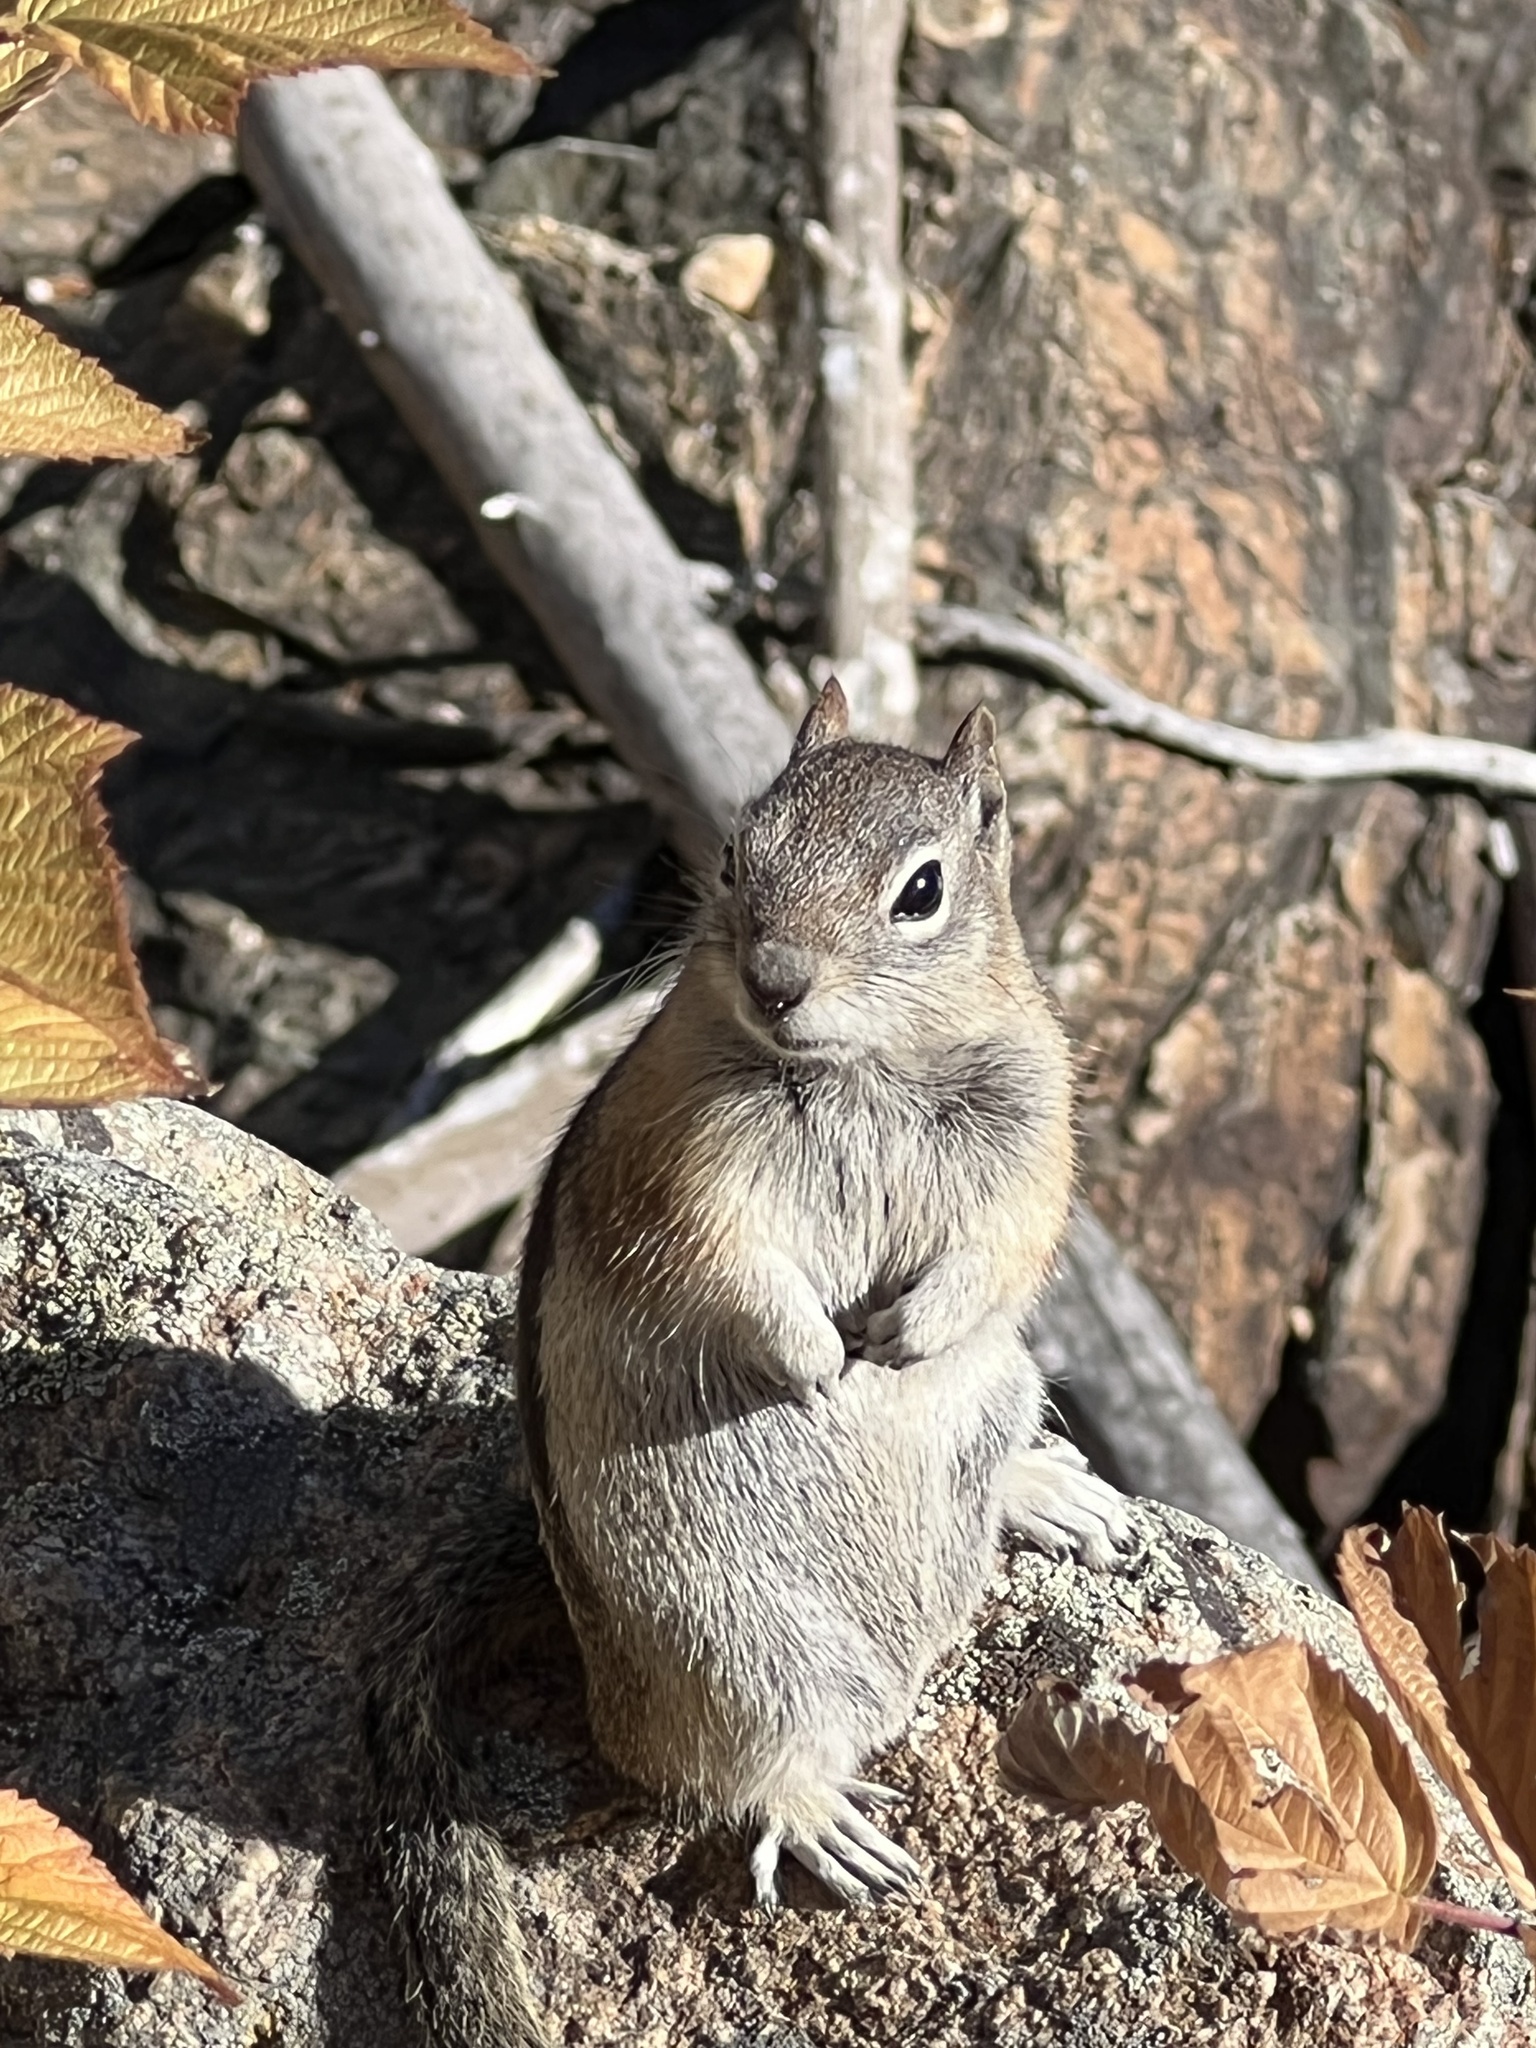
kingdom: Animalia
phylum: Chordata
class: Mammalia
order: Rodentia
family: Sciuridae
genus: Callospermophilus
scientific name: Callospermophilus lateralis
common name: Golden-mantled ground squirrel
